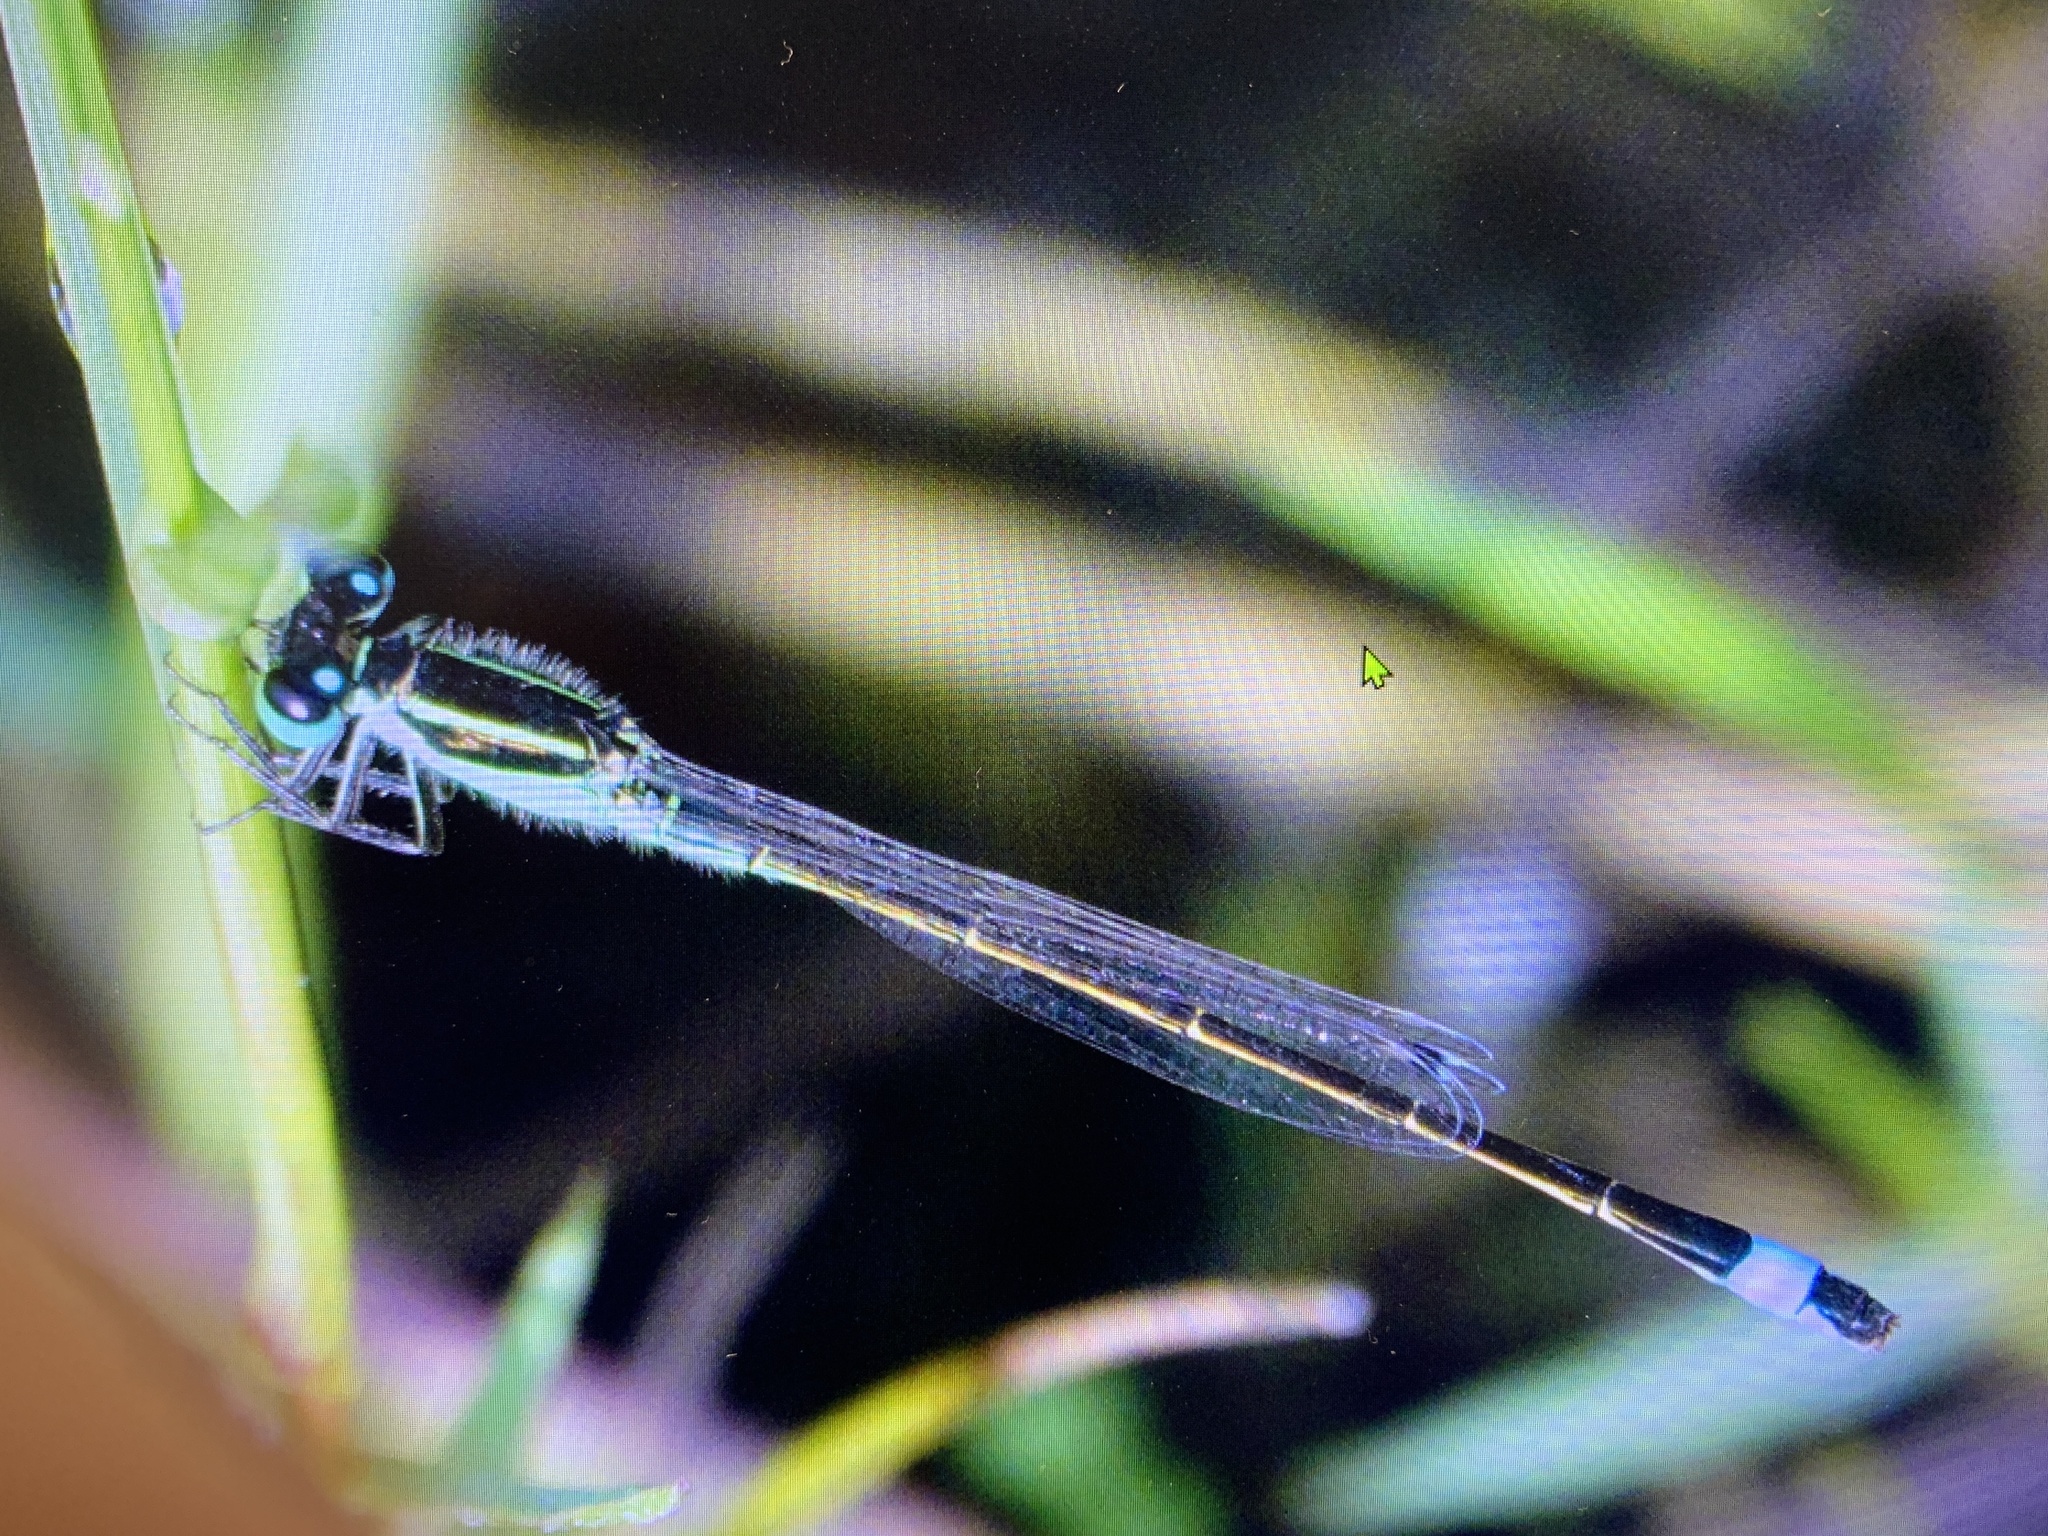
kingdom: Animalia
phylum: Arthropoda
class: Insecta
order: Odonata
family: Coenagrionidae
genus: Ischnura
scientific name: Ischnura ramburii
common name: Rambur's forktail
